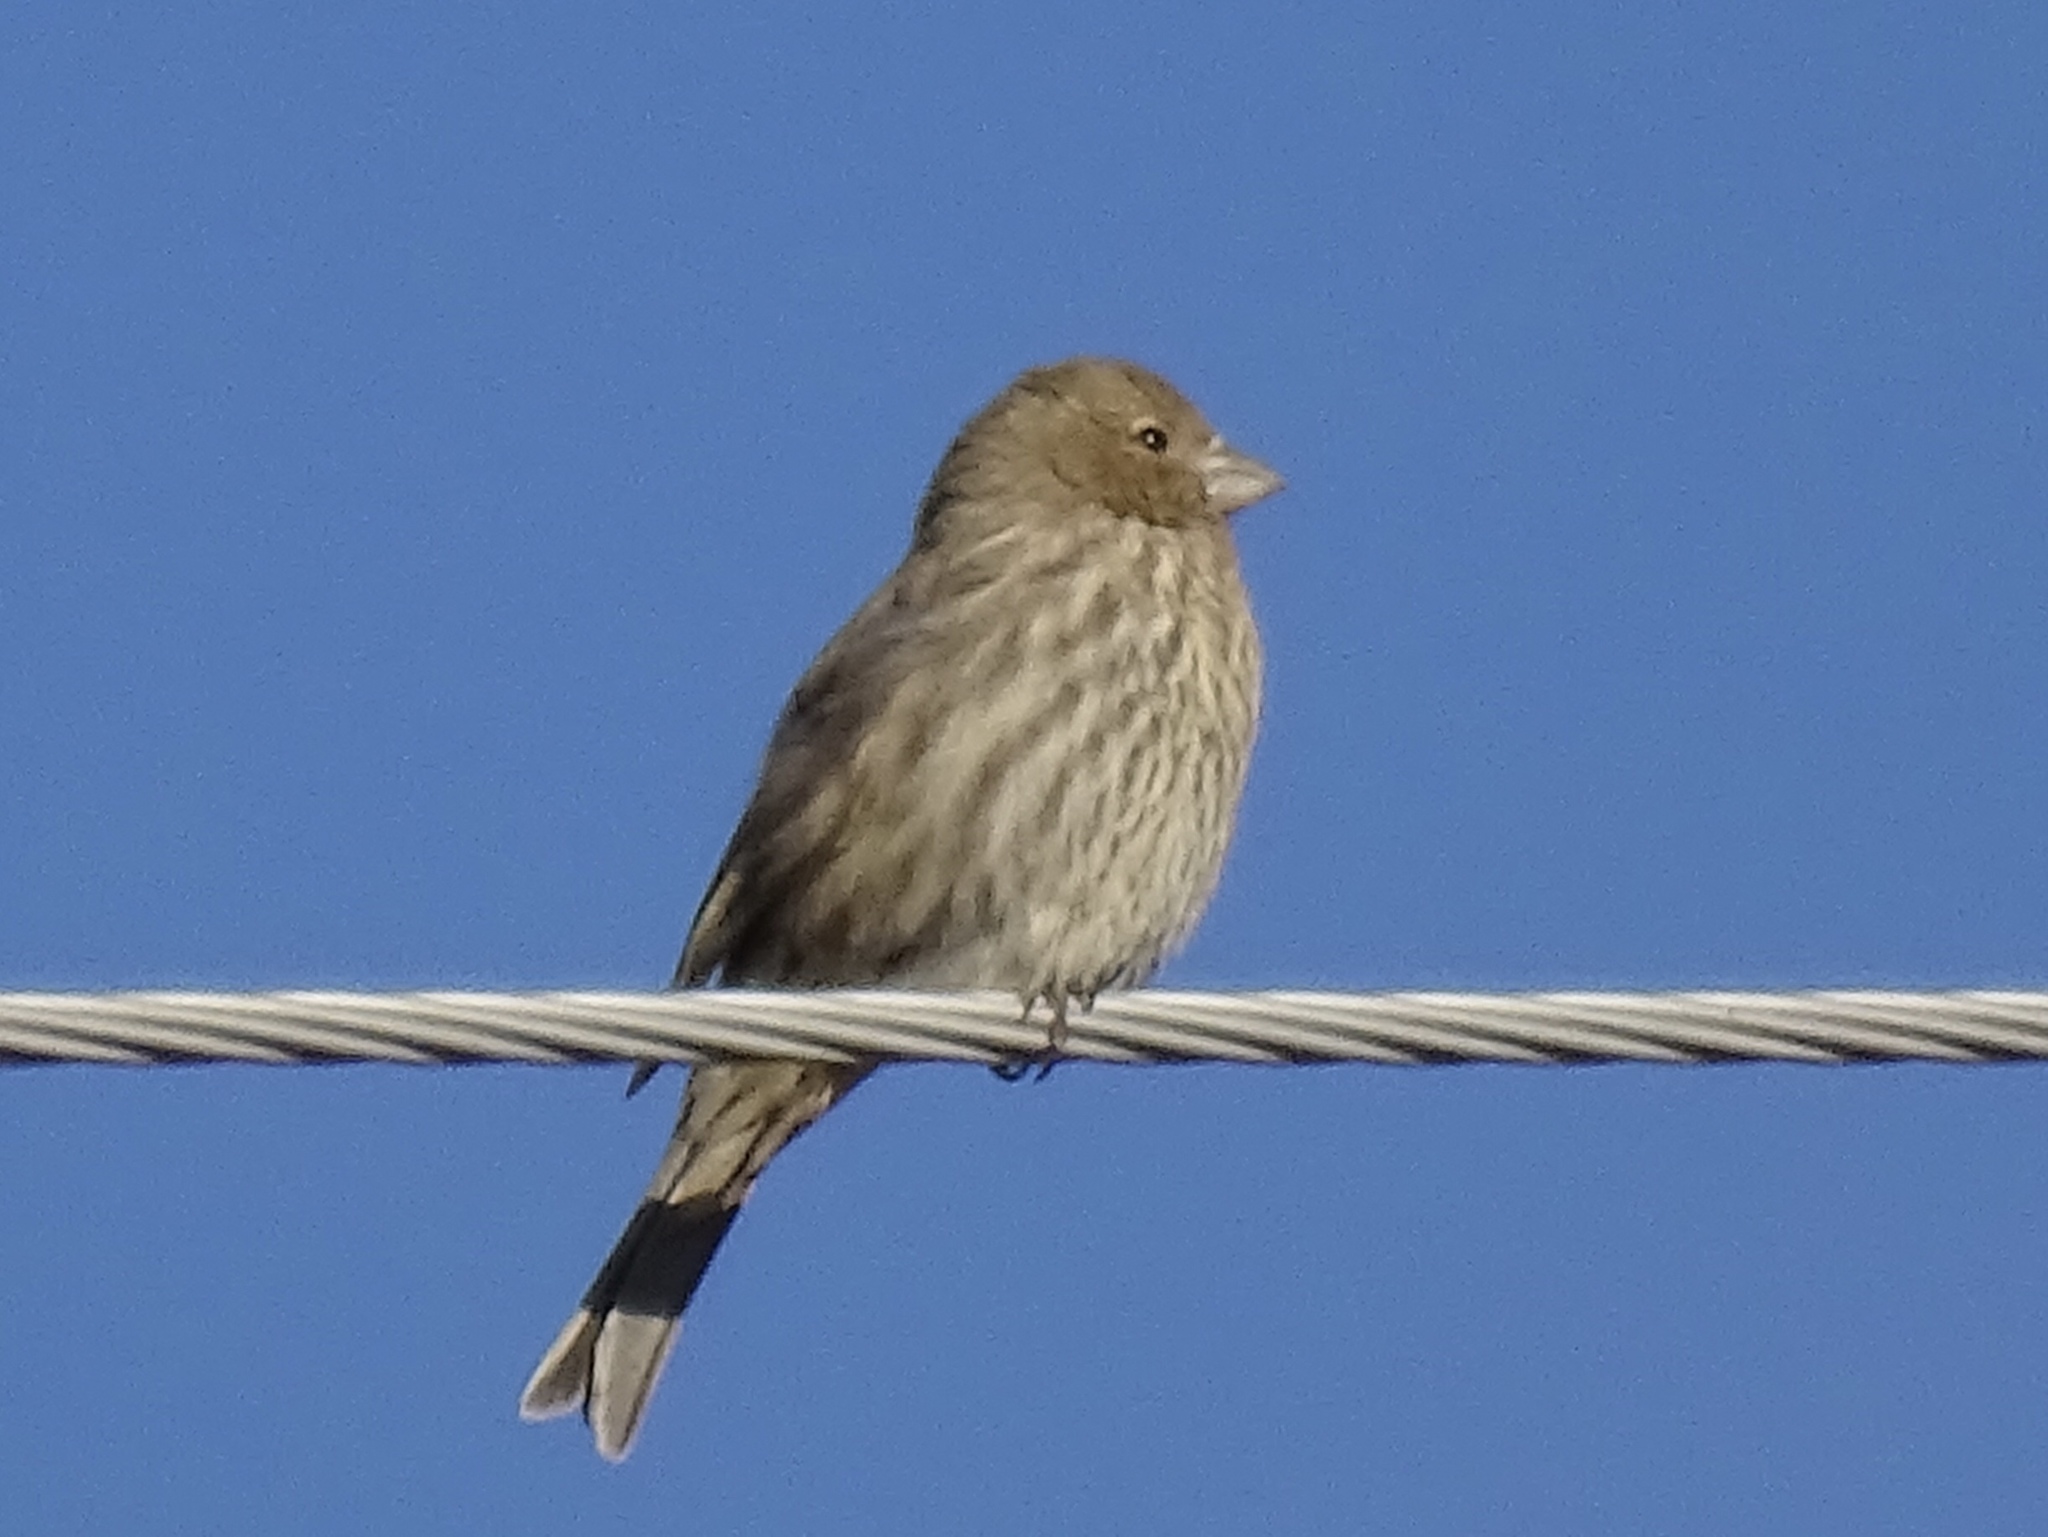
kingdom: Animalia
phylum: Chordata
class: Aves
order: Passeriformes
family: Fringillidae
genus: Haemorhous
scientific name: Haemorhous mexicanus
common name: House finch
